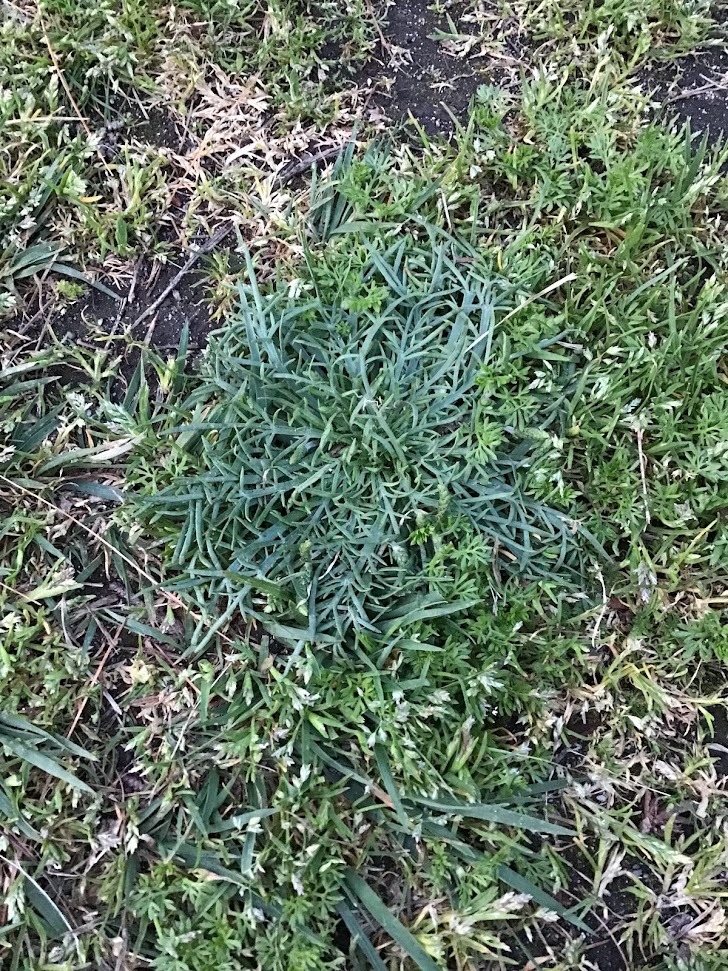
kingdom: Plantae
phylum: Tracheophyta
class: Magnoliopsida
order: Lamiales
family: Plantaginaceae
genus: Plantago
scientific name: Plantago coronopus
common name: Buck's-horn plantain
